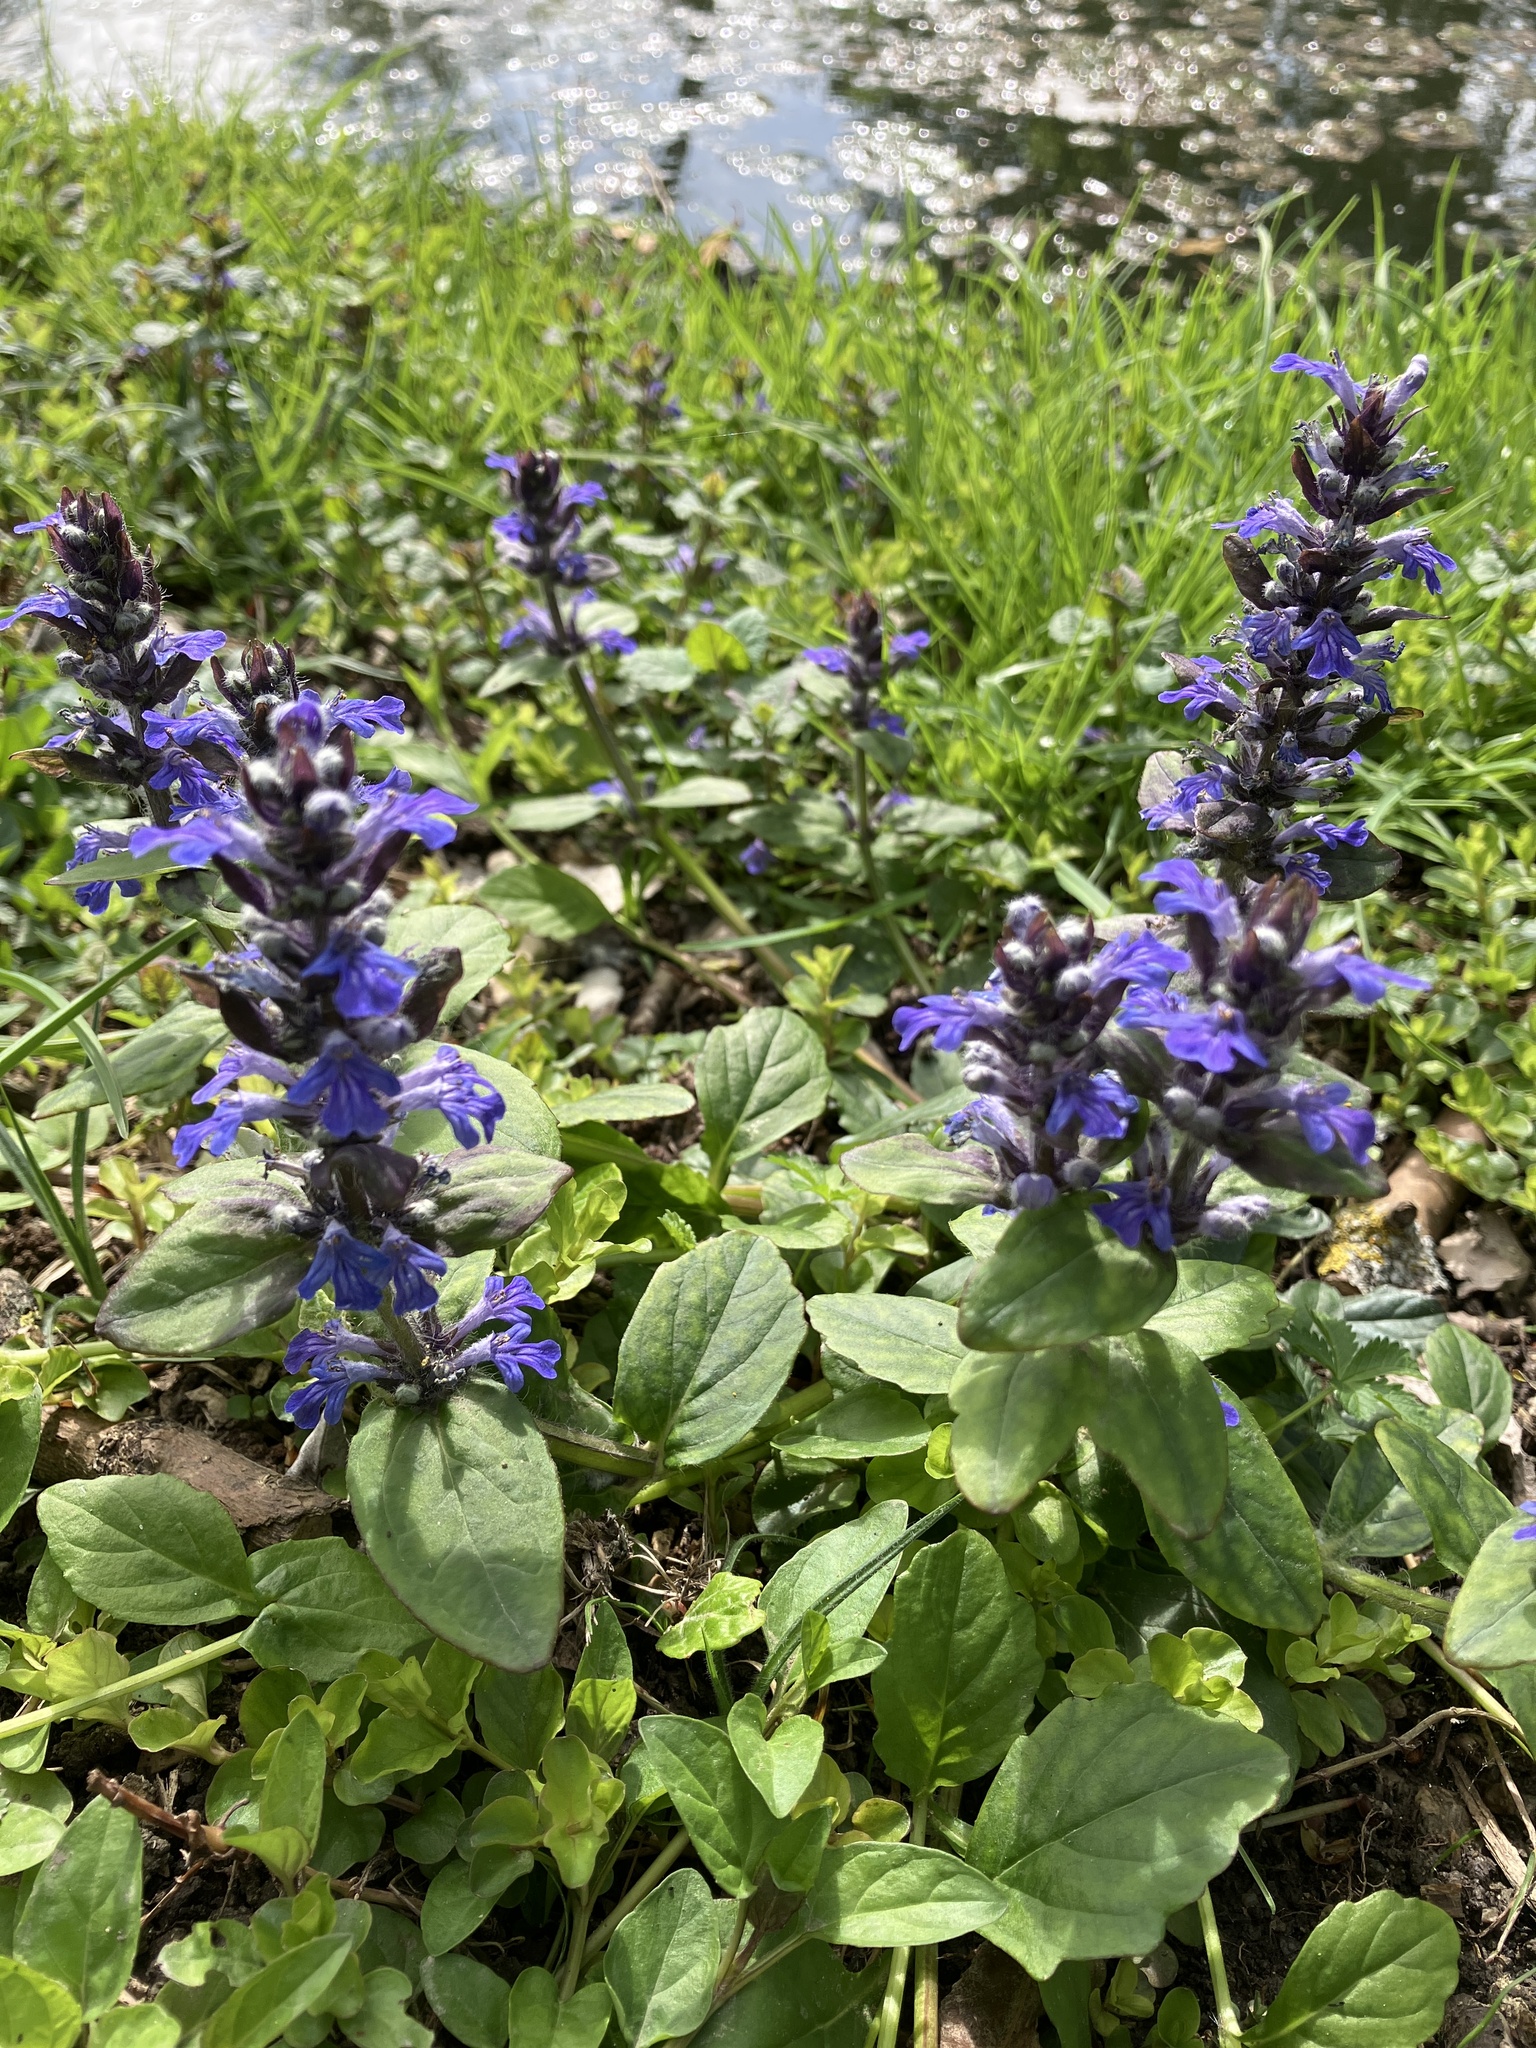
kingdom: Plantae
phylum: Tracheophyta
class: Magnoliopsida
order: Lamiales
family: Lamiaceae
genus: Ajuga
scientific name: Ajuga reptans
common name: Bugle
